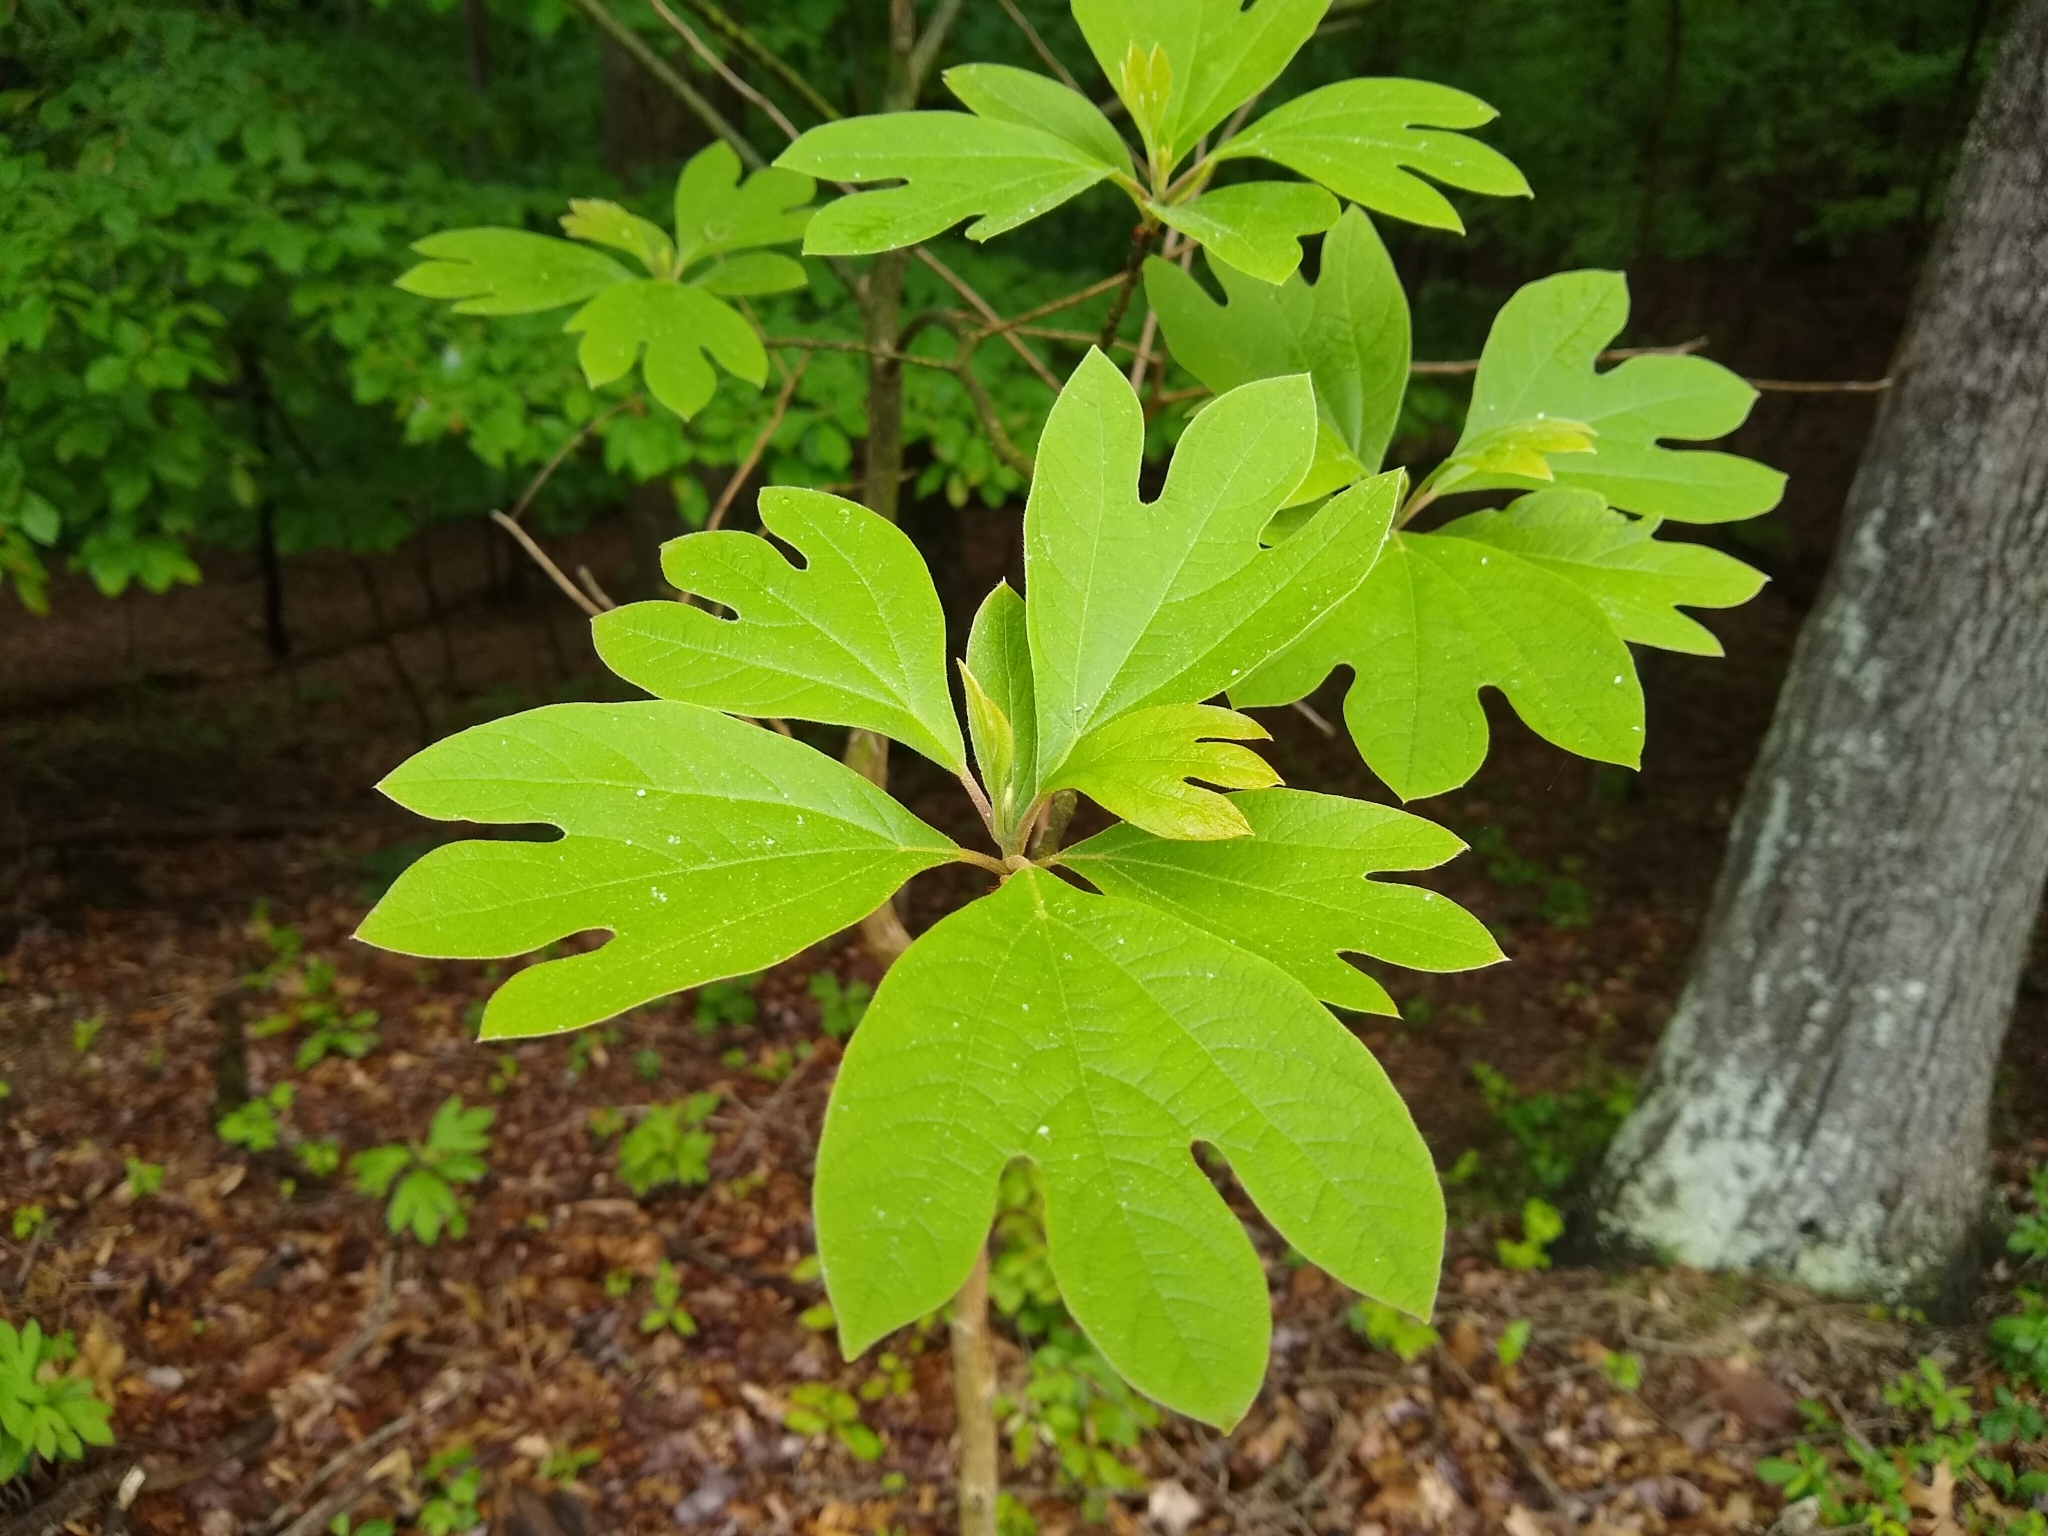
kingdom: Plantae
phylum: Tracheophyta
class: Magnoliopsida
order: Laurales
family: Lauraceae
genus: Sassafras
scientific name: Sassafras albidum
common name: Sassafras
